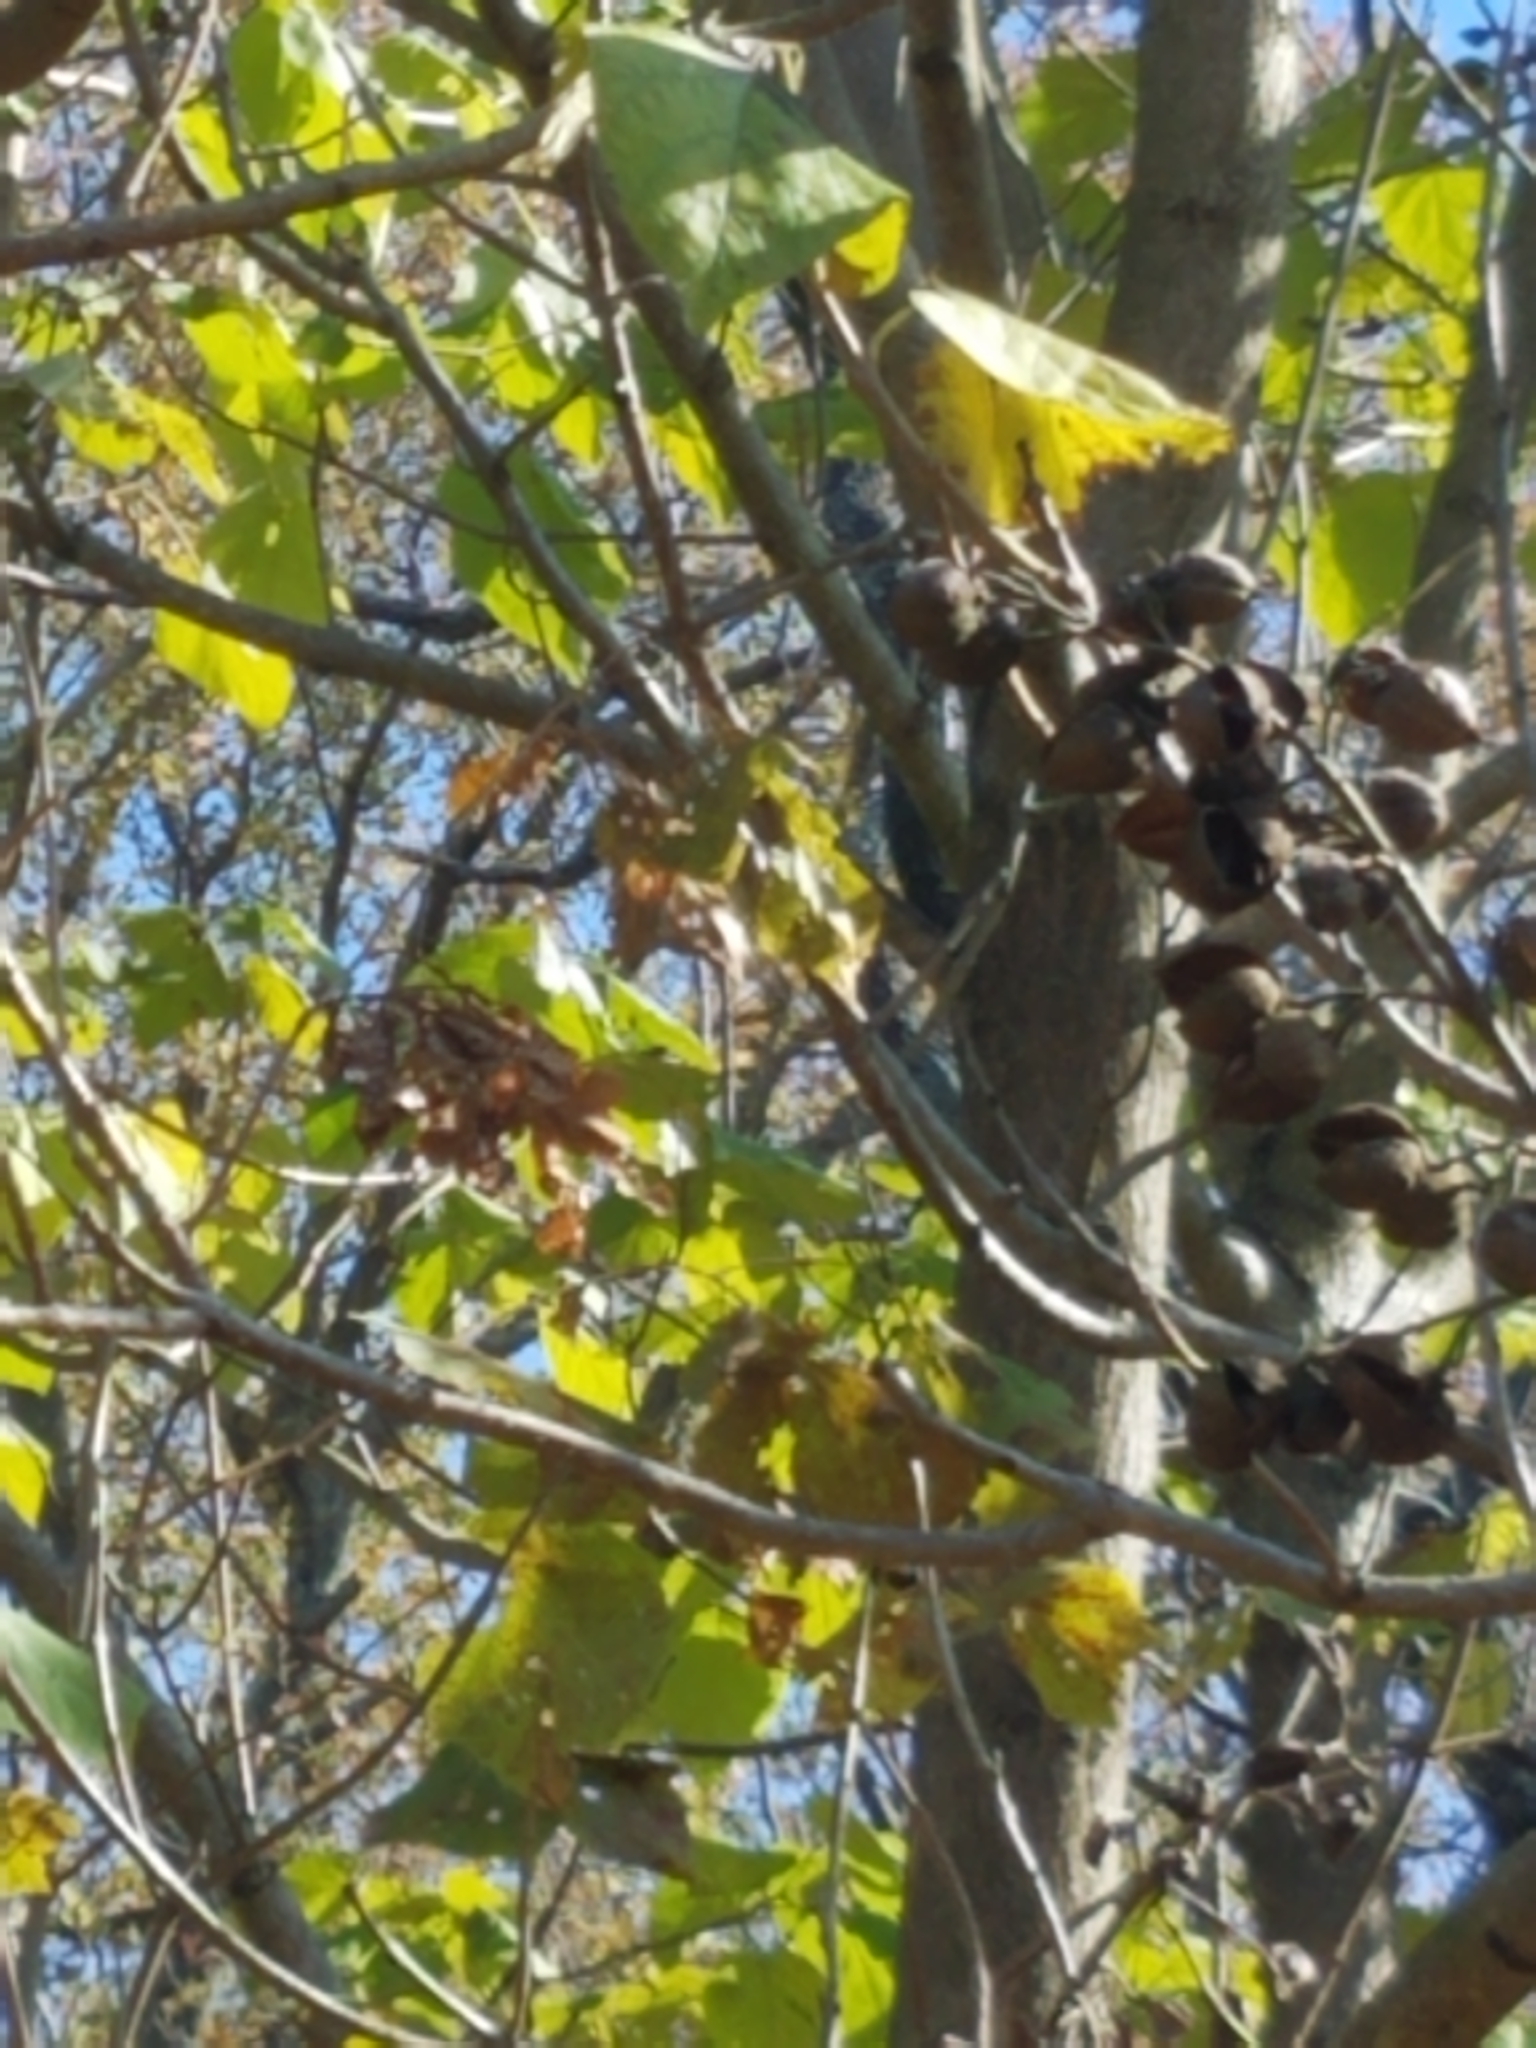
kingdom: Plantae
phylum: Tracheophyta
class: Magnoliopsida
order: Lamiales
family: Paulowniaceae
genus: Paulownia
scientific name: Paulownia tomentosa
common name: Foxglove-tree
